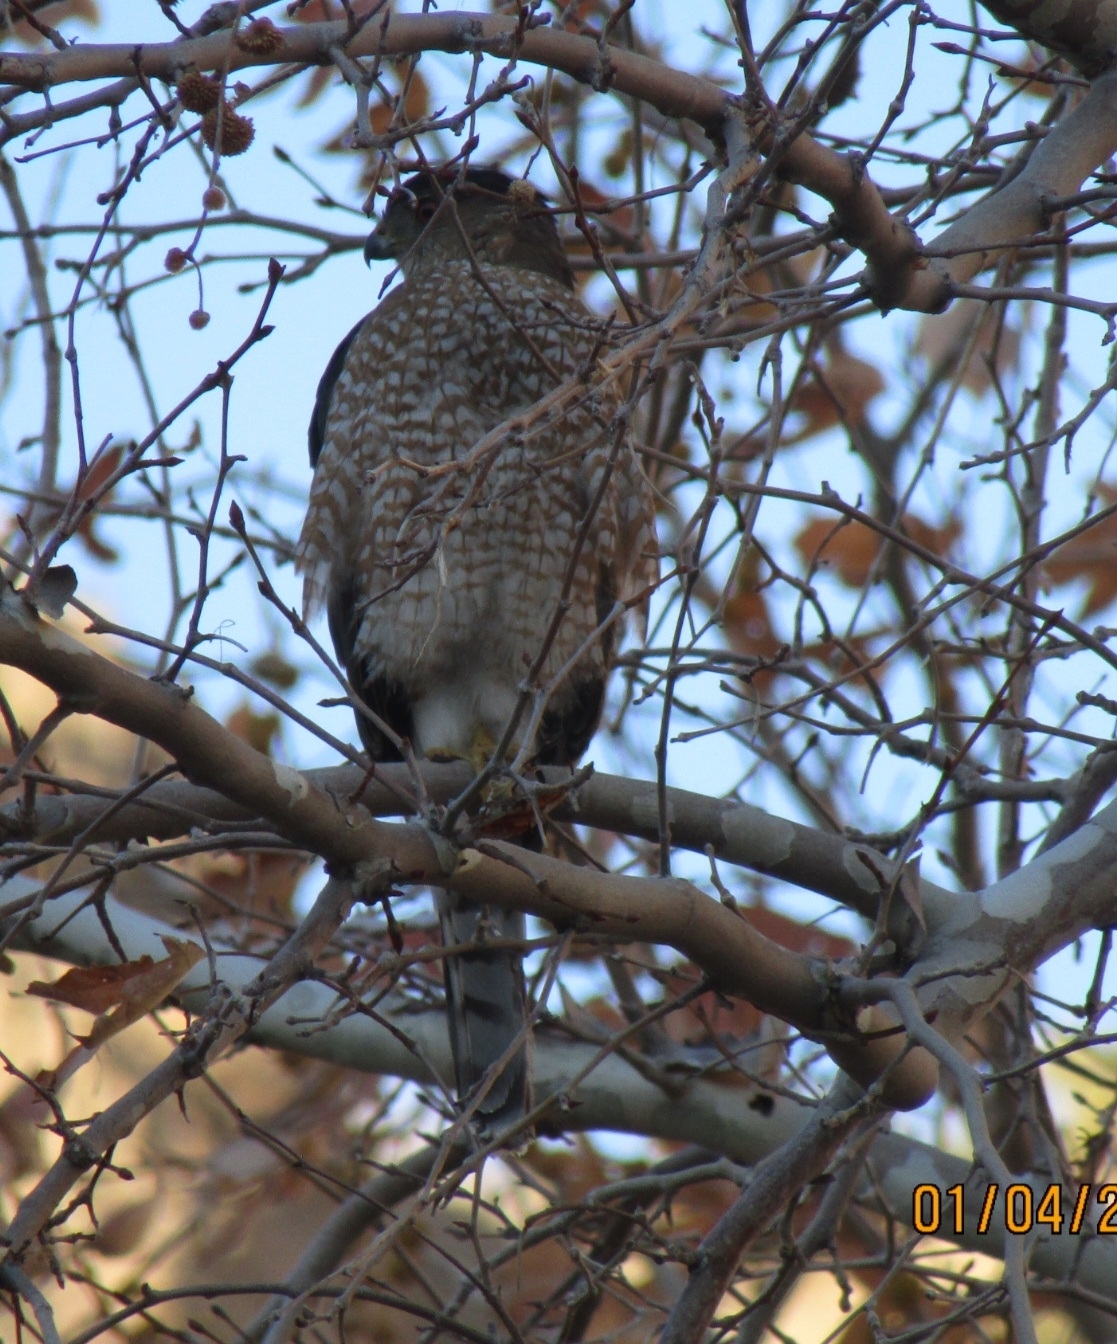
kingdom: Animalia
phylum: Chordata
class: Aves
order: Accipitriformes
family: Accipitridae
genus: Accipiter
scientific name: Accipiter cooperii
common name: Cooper's hawk
